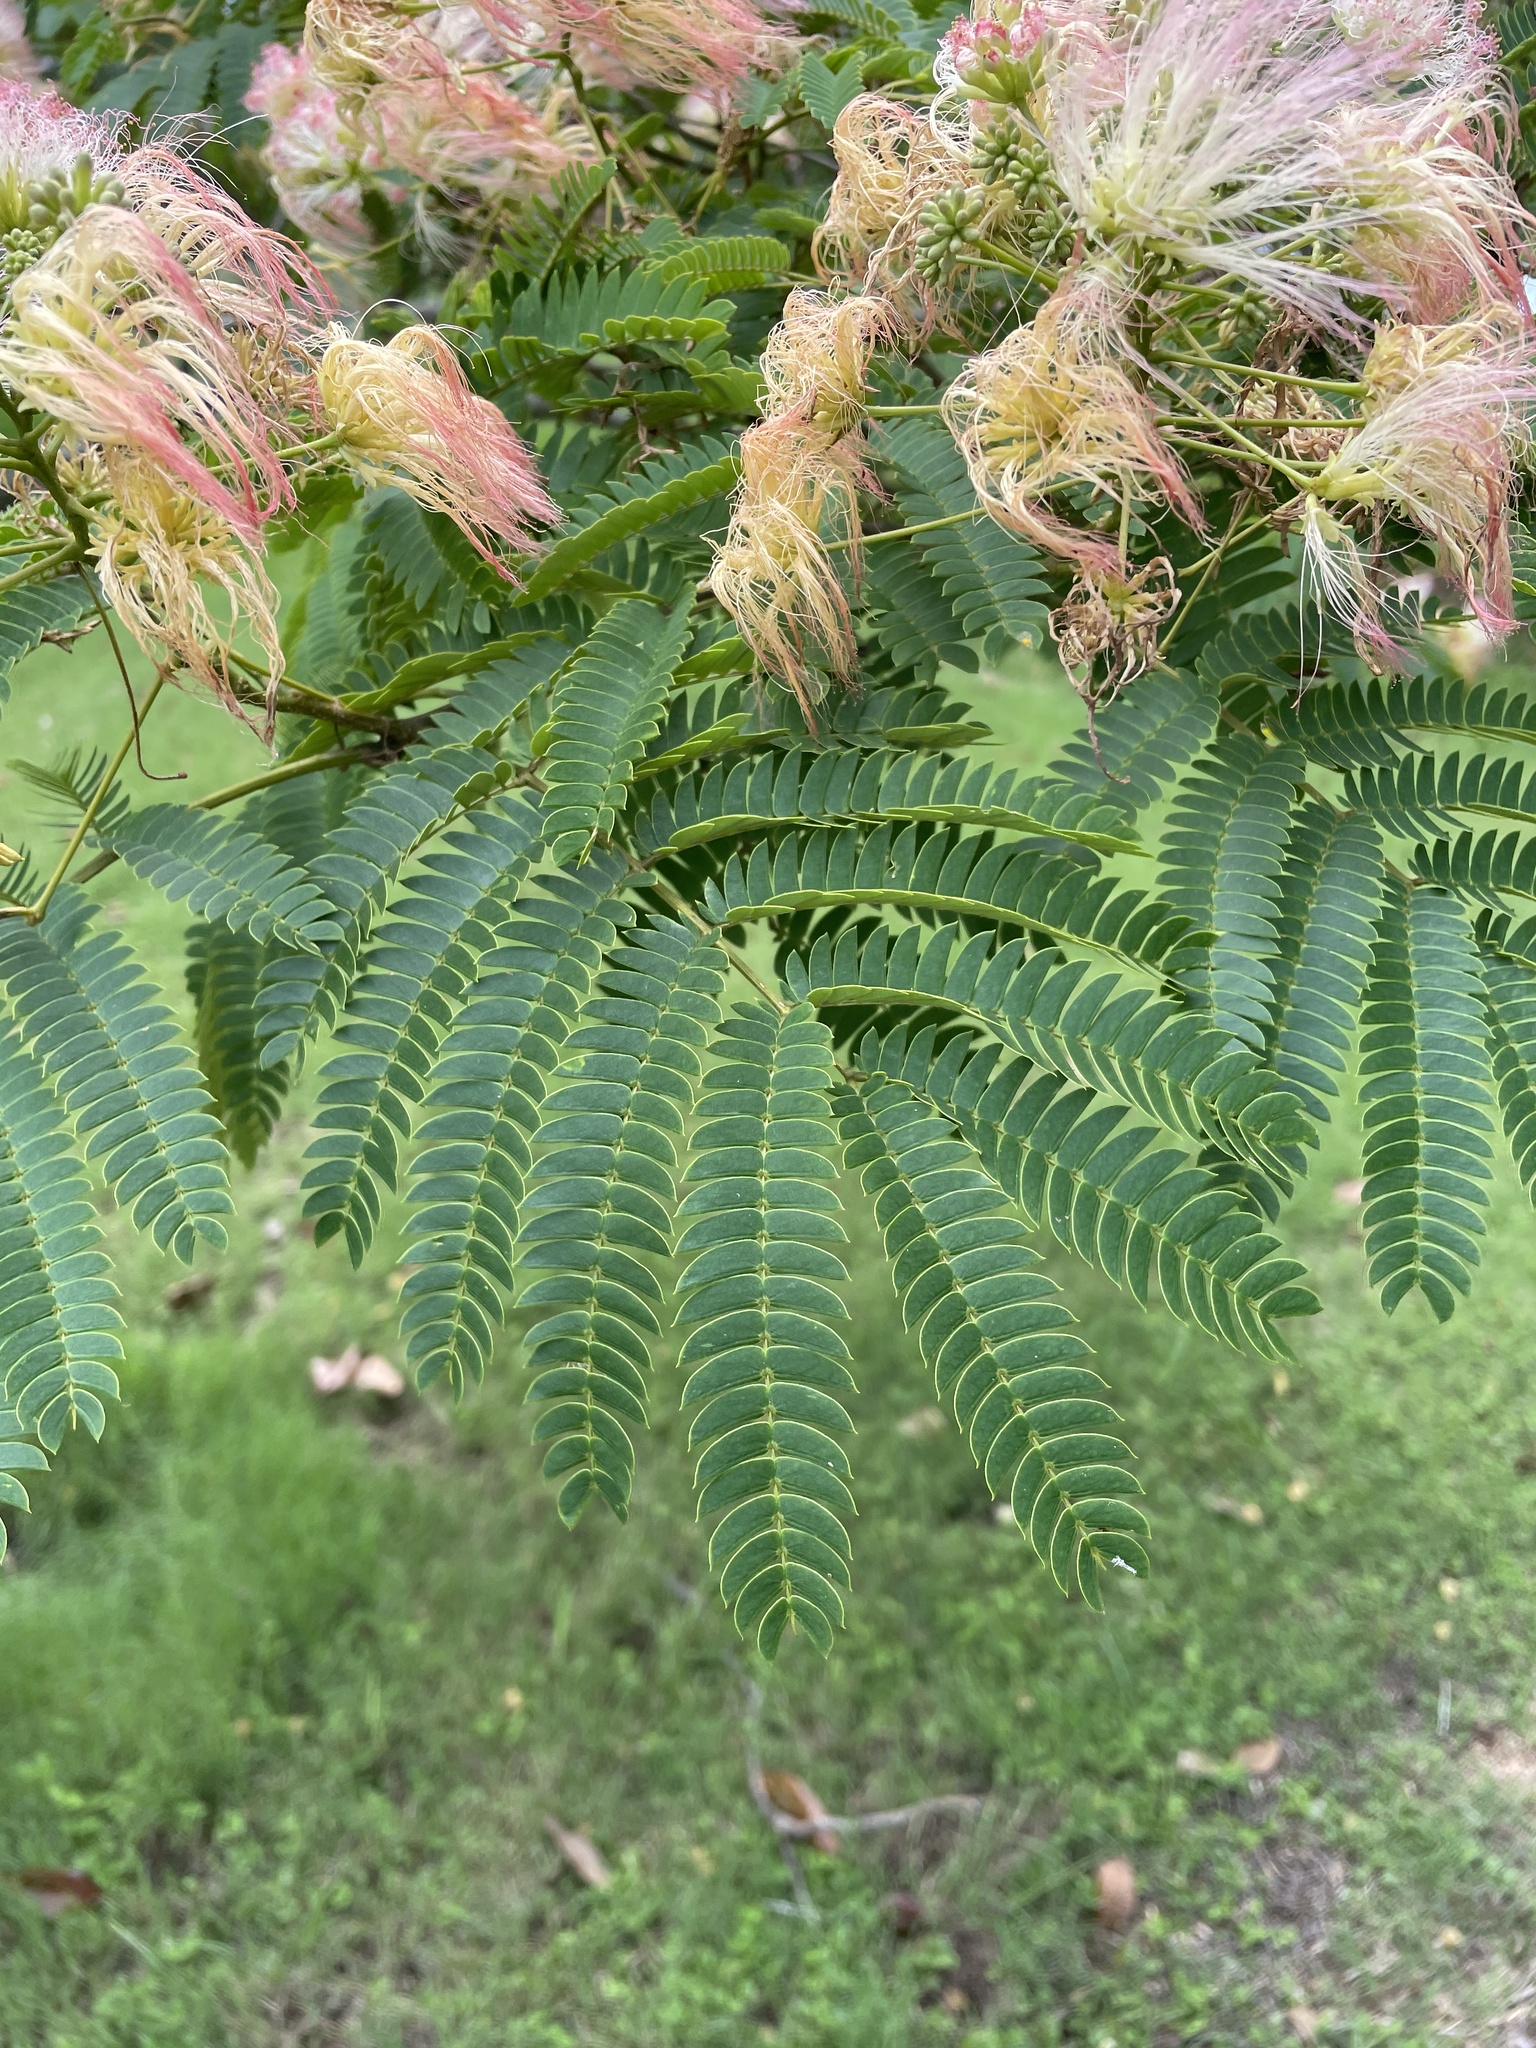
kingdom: Plantae
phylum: Tracheophyta
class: Magnoliopsida
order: Fabales
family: Fabaceae
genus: Albizia
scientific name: Albizia julibrissin
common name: Silktree
